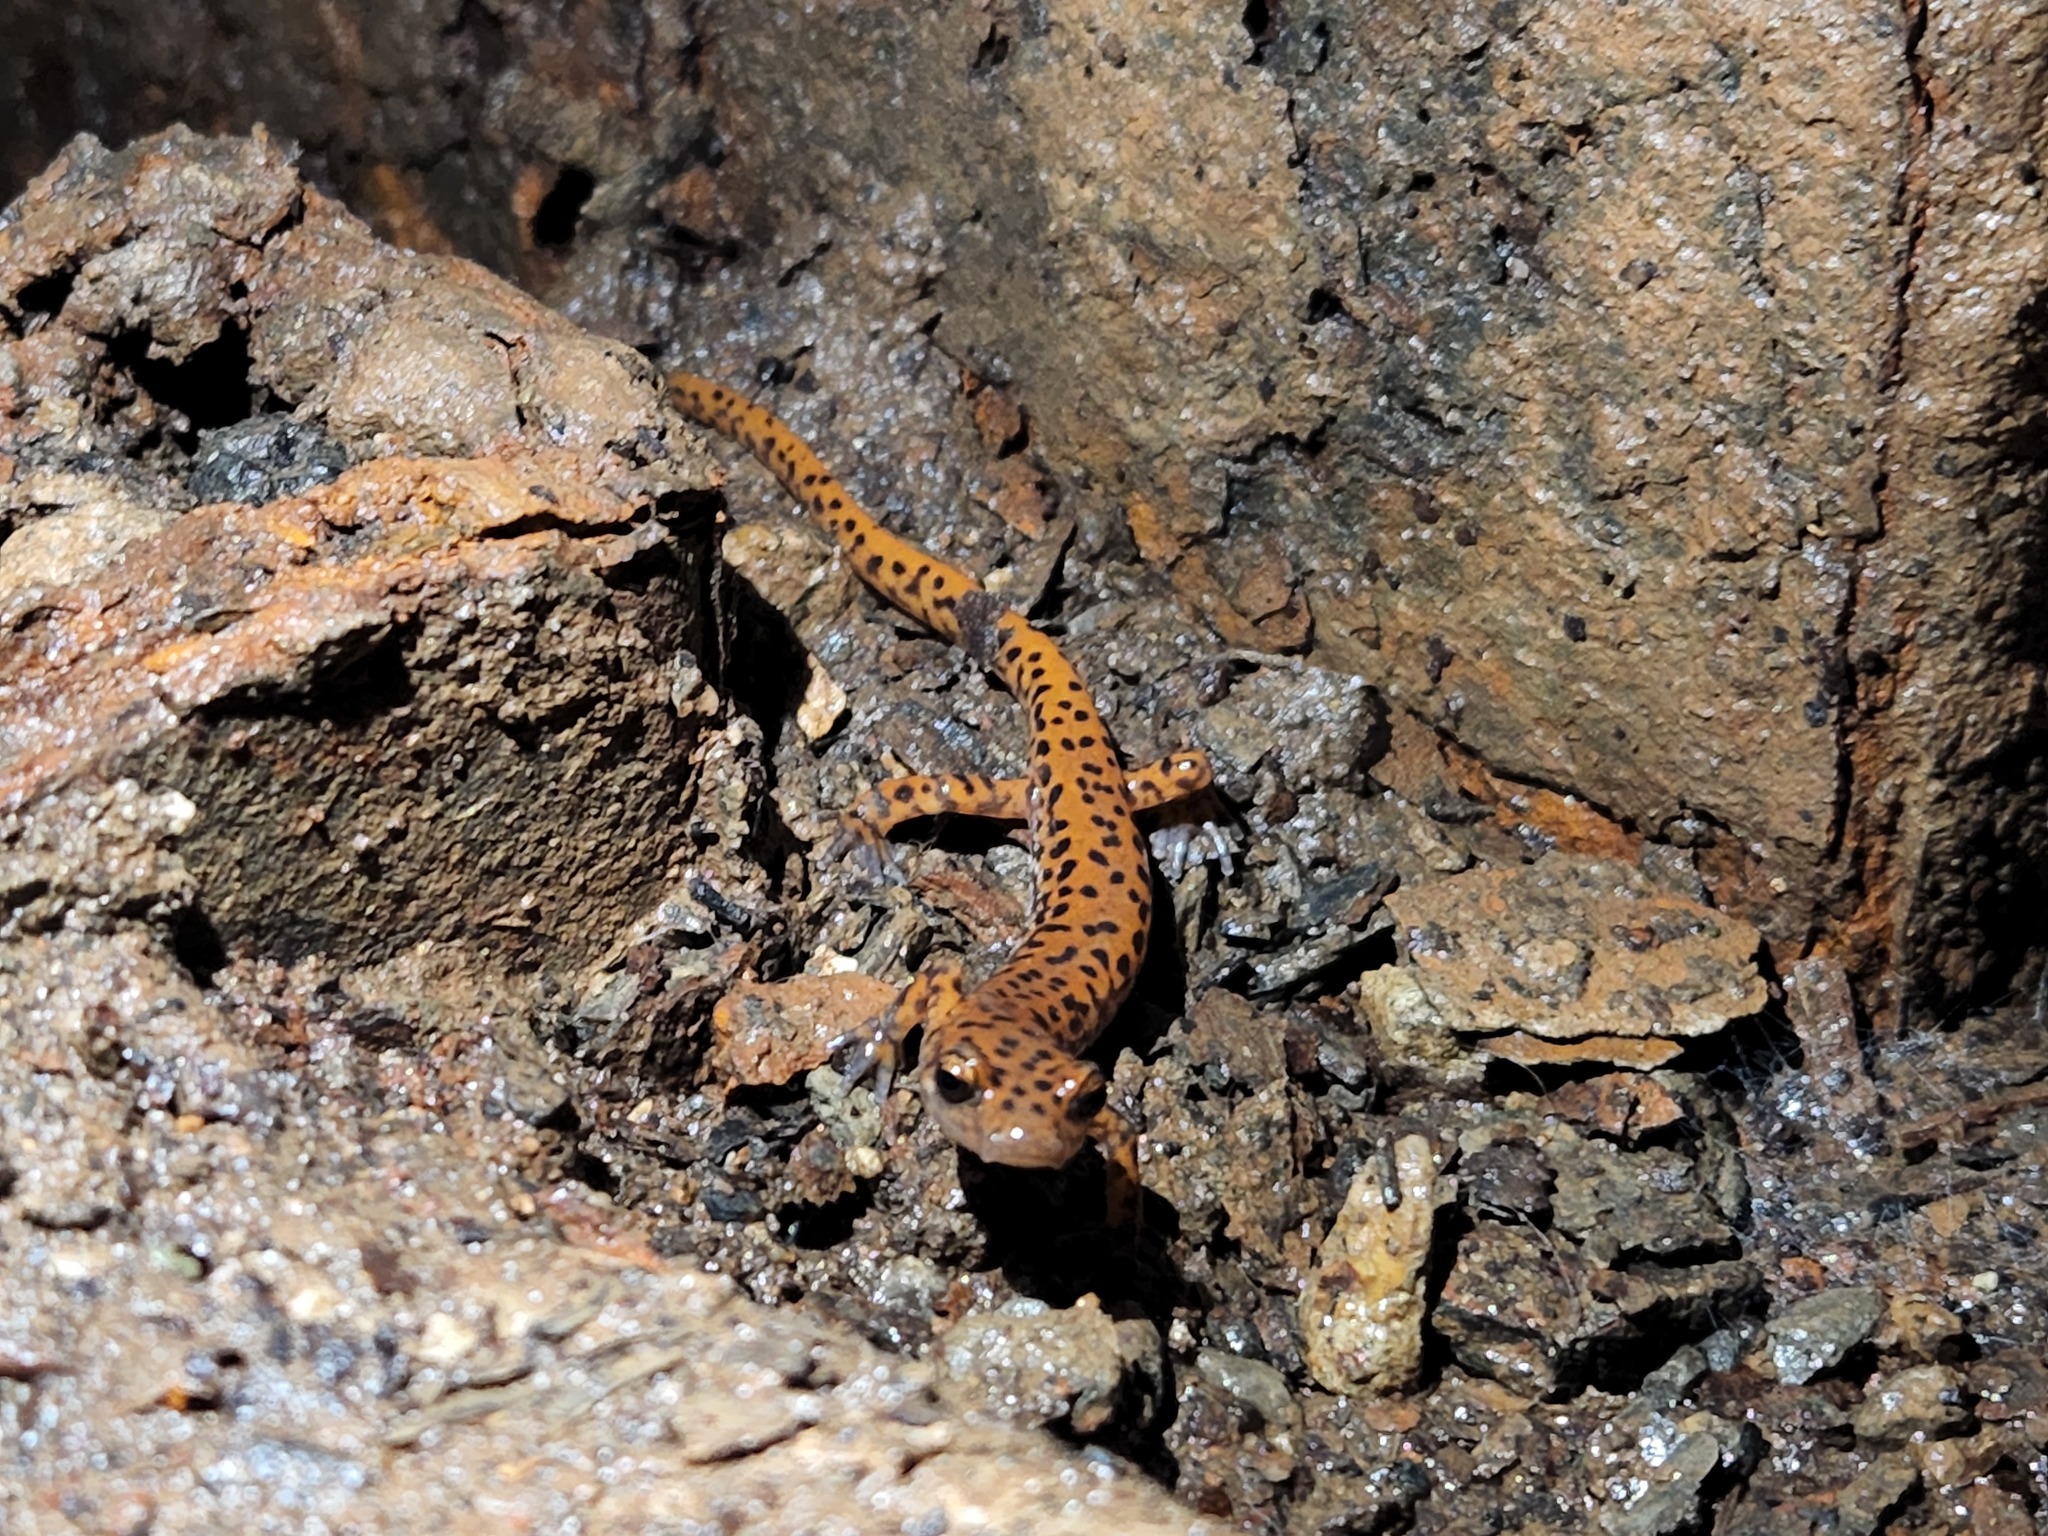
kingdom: Animalia
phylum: Chordata
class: Amphibia
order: Caudata
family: Plethodontidae
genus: Eurycea
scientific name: Eurycea lucifuga
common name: Cave salamander
